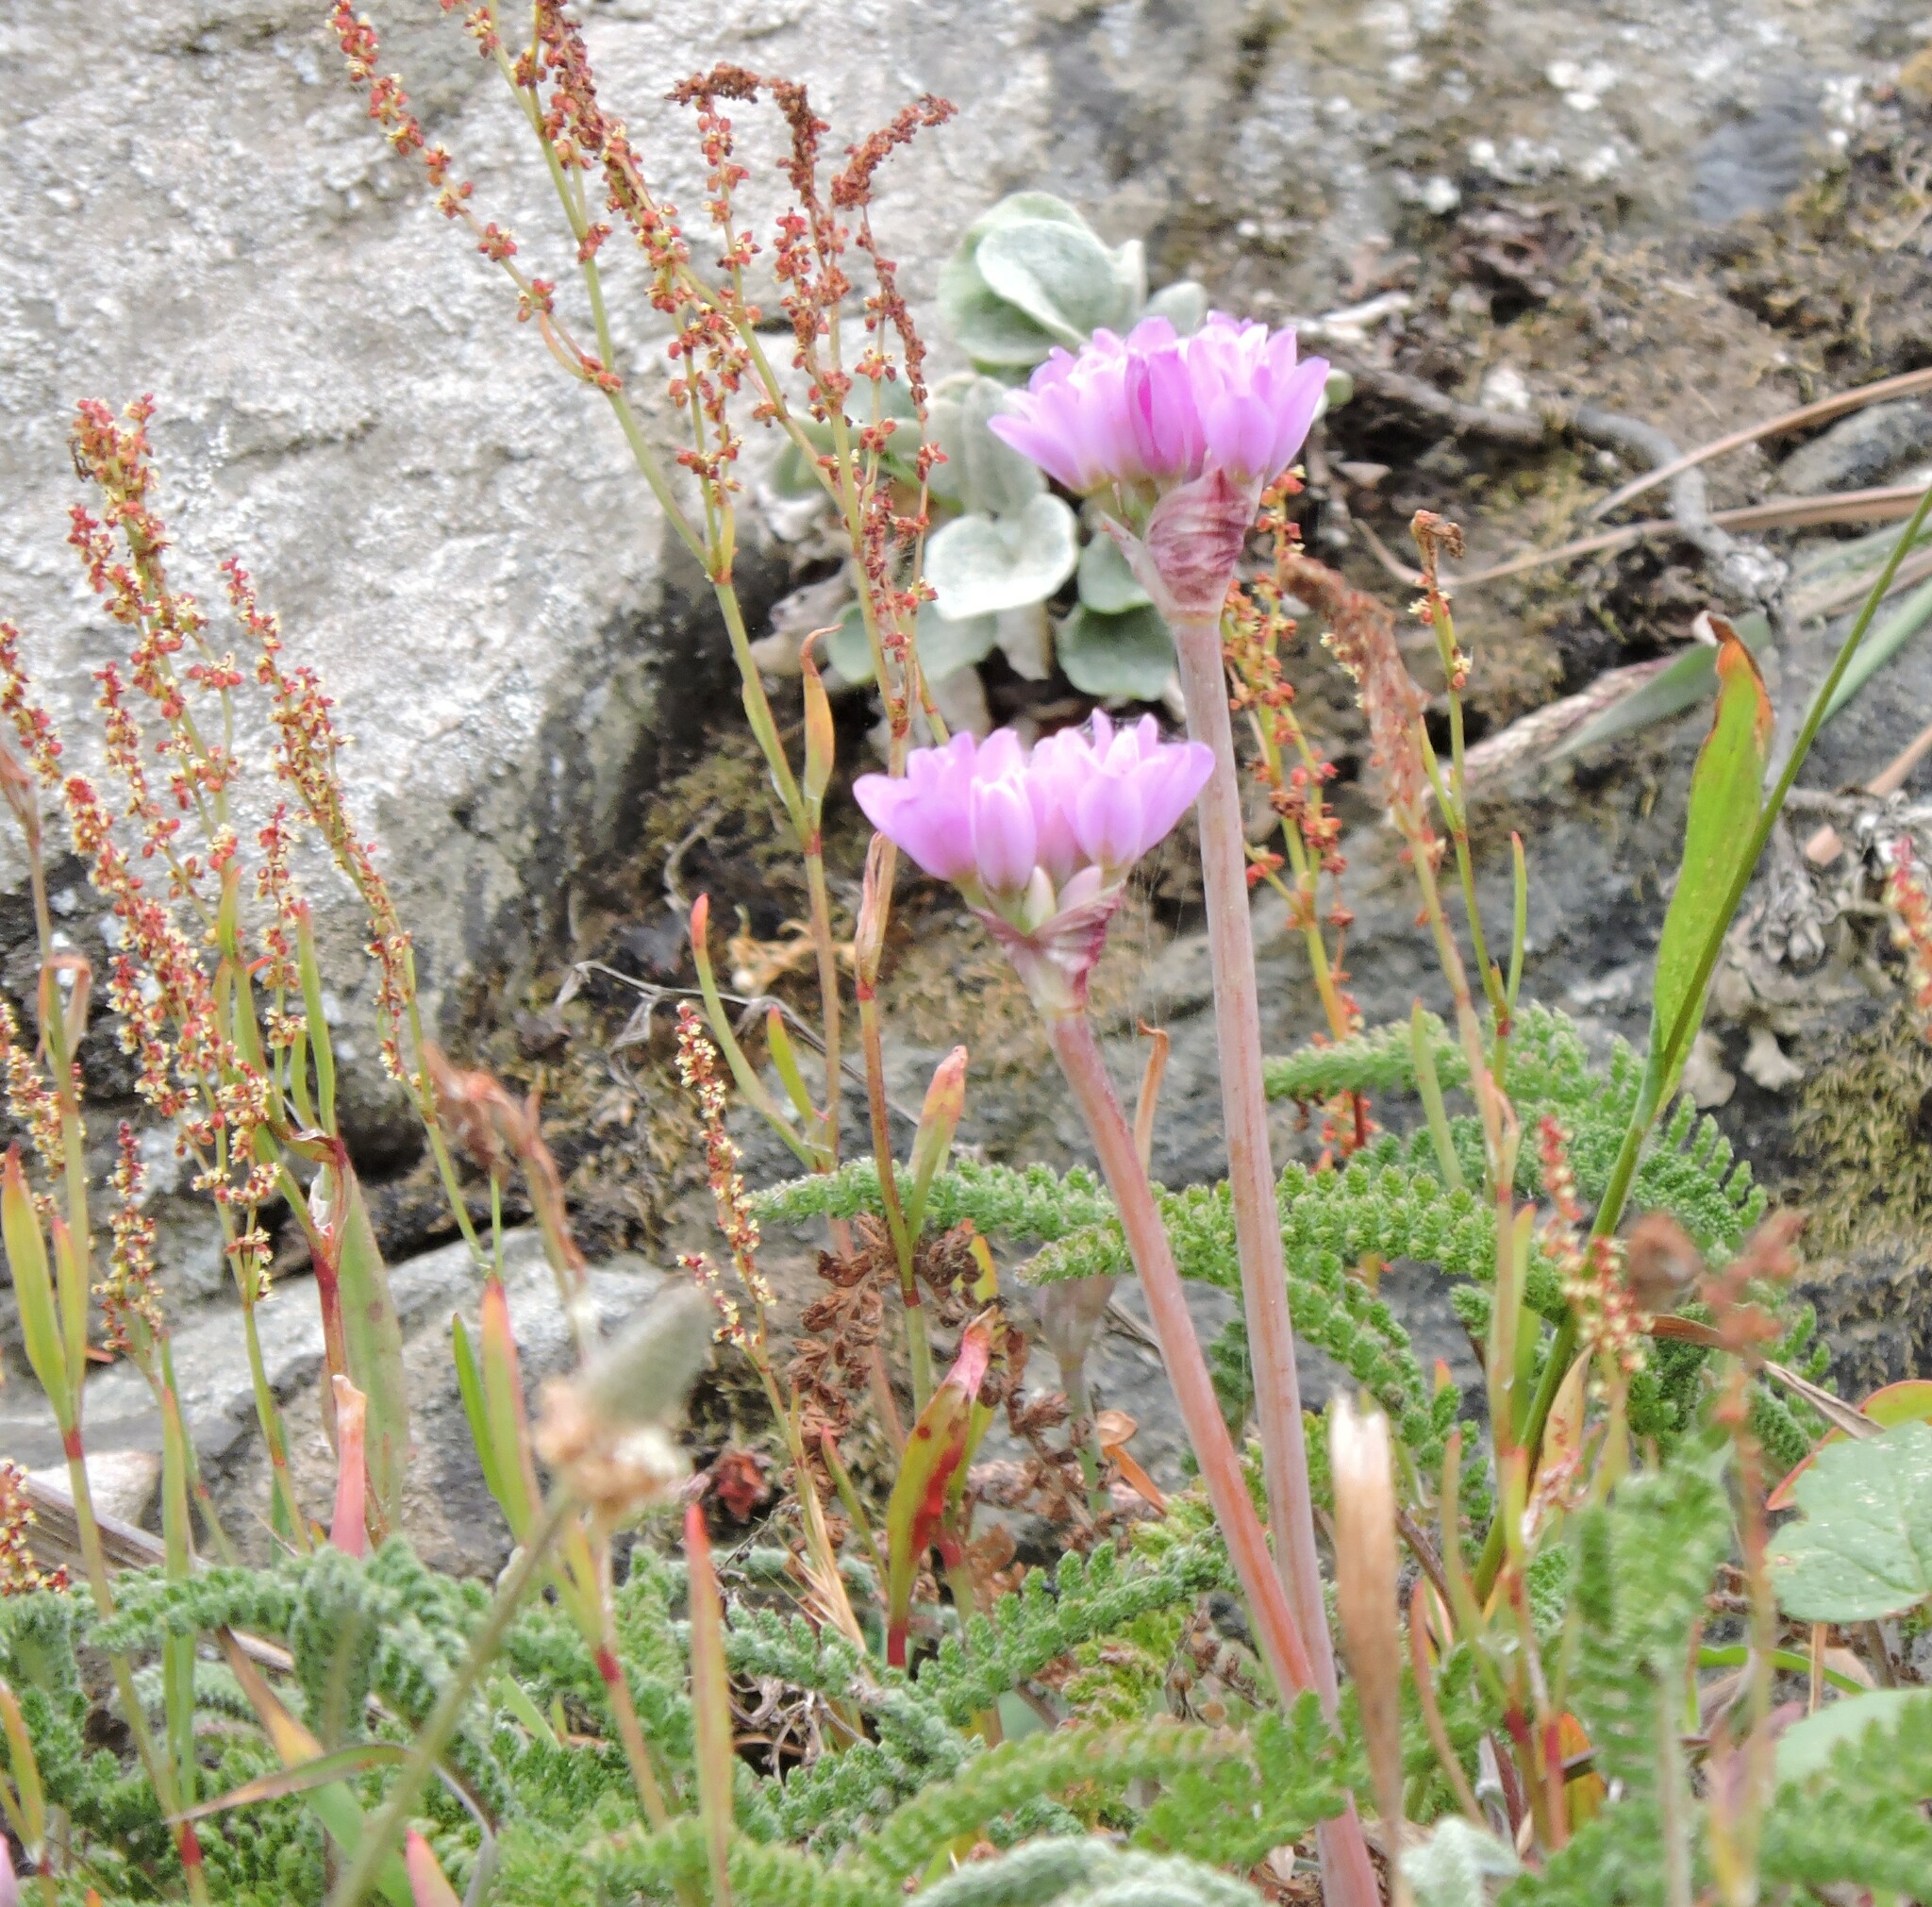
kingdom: Plantae
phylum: Tracheophyta
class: Liliopsida
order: Asparagales
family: Amaryllidaceae
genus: Allium
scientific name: Allium dichlamydeum
